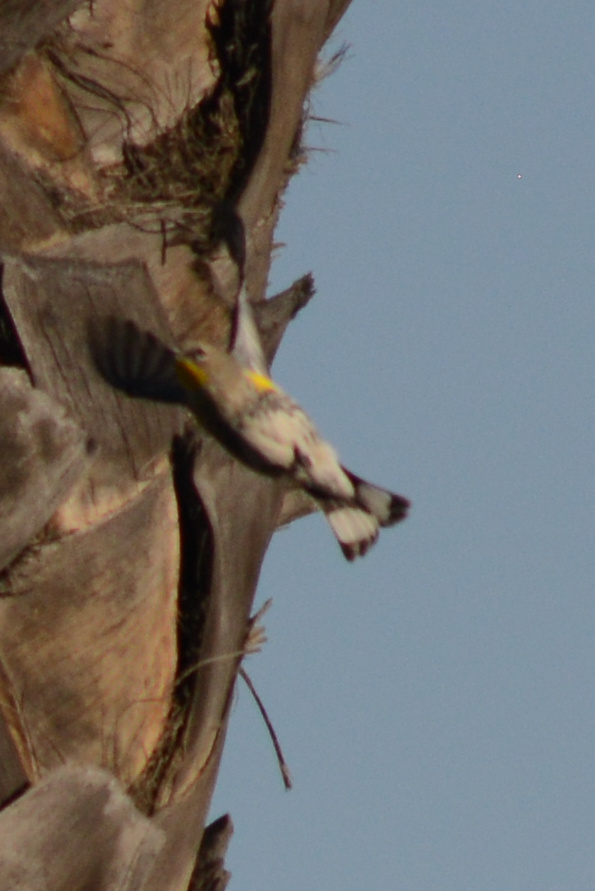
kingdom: Animalia
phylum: Chordata
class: Aves
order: Passeriformes
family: Parulidae
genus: Setophaga
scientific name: Setophaga auduboni
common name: Audubon's warbler
